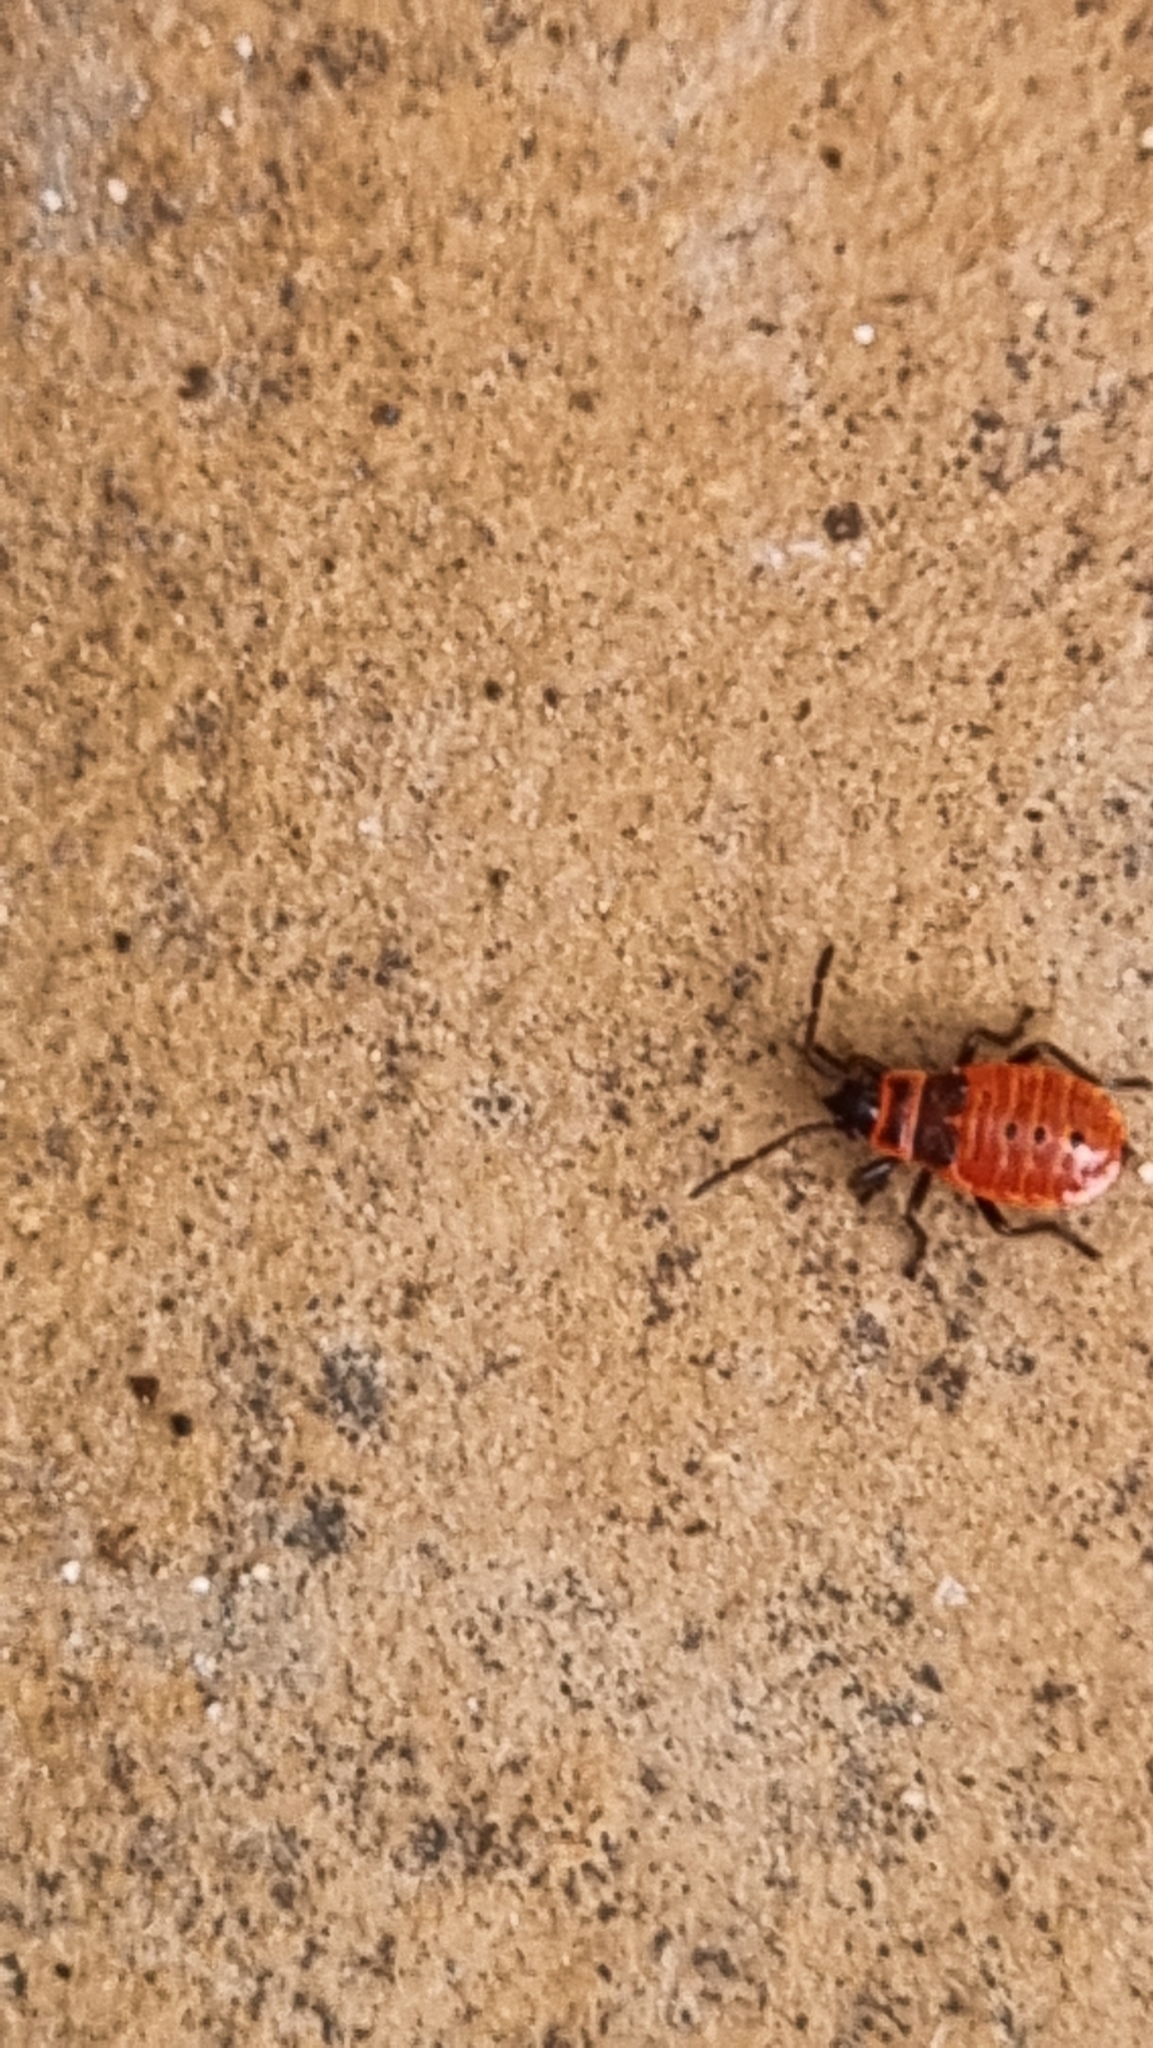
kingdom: Animalia
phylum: Arthropoda
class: Insecta
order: Hemiptera
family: Pyrrhocoridae
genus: Pyrrhocoris
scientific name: Pyrrhocoris apterus
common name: Firebug
